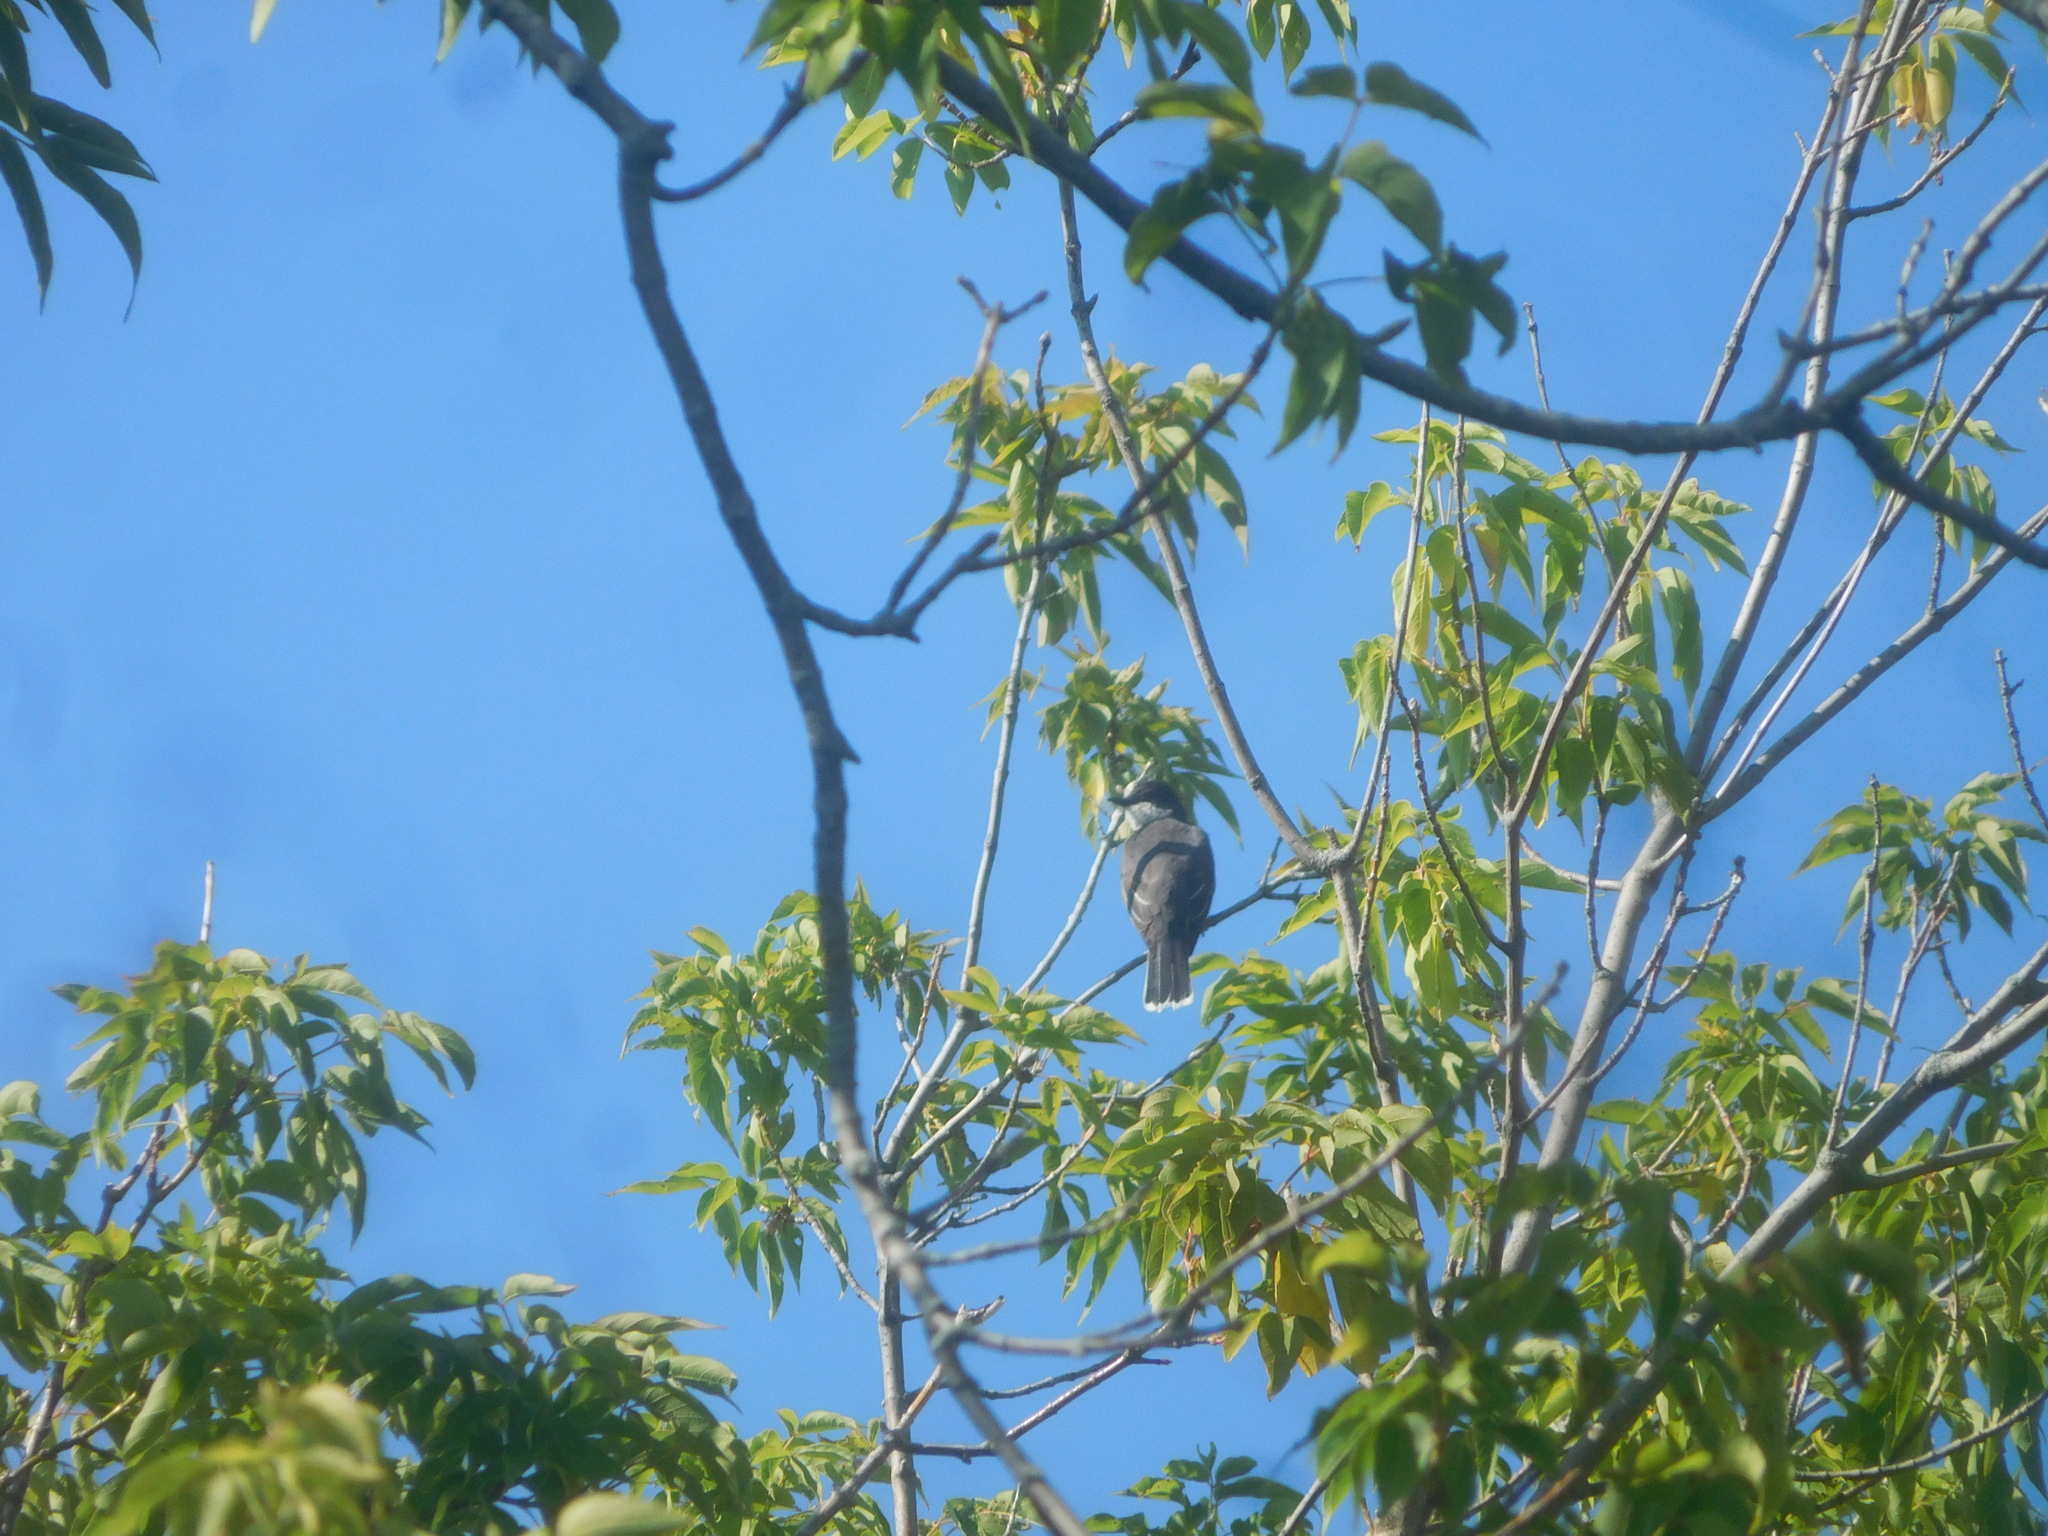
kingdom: Animalia
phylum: Chordata
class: Aves
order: Passeriformes
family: Tyrannidae
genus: Tyrannus
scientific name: Tyrannus tyrannus
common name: Eastern kingbird
